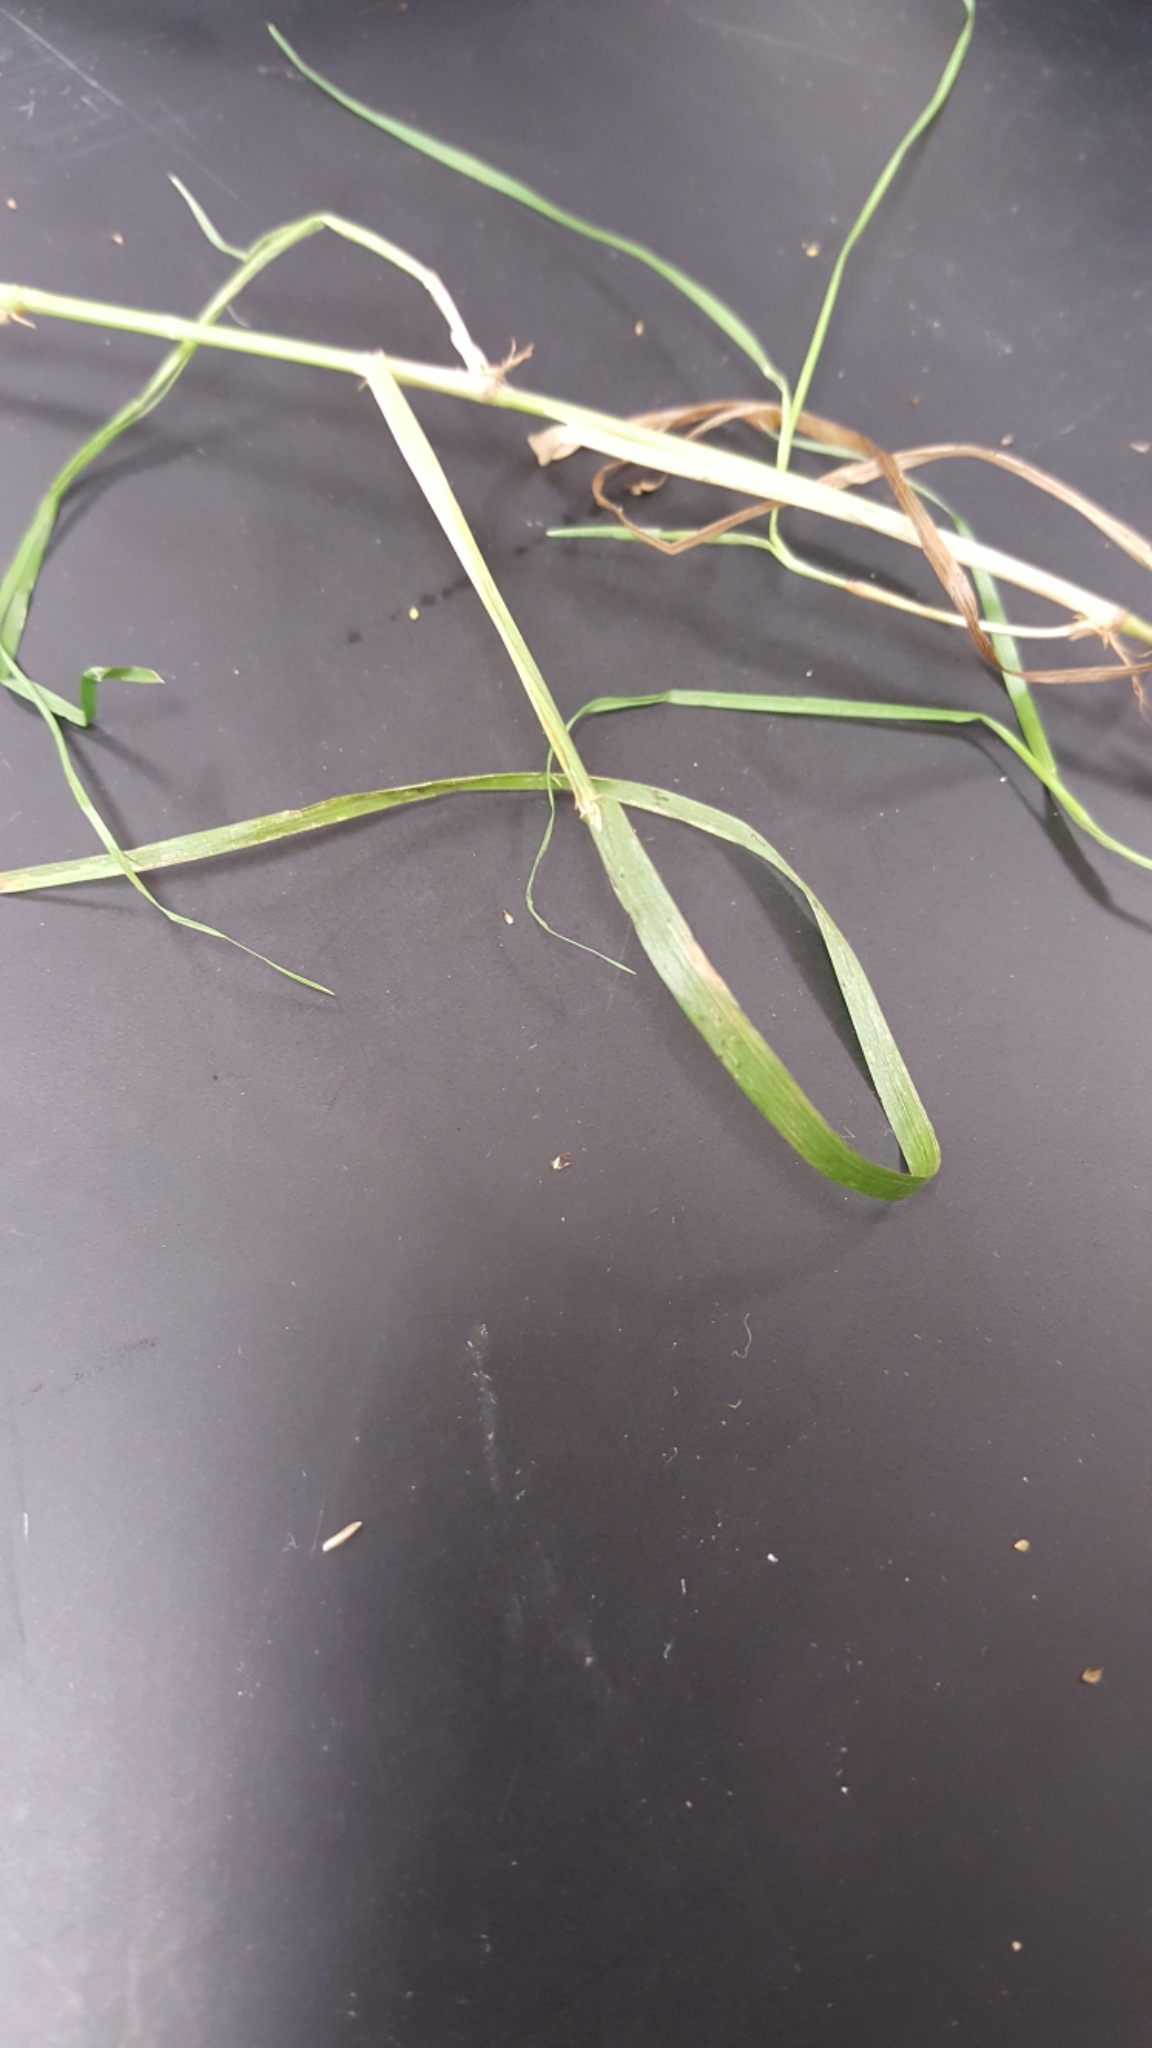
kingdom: Plantae
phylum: Tracheophyta
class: Liliopsida
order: Poales
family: Poaceae
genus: Poa
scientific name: Poa palustris
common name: Swamp meadow-grass
